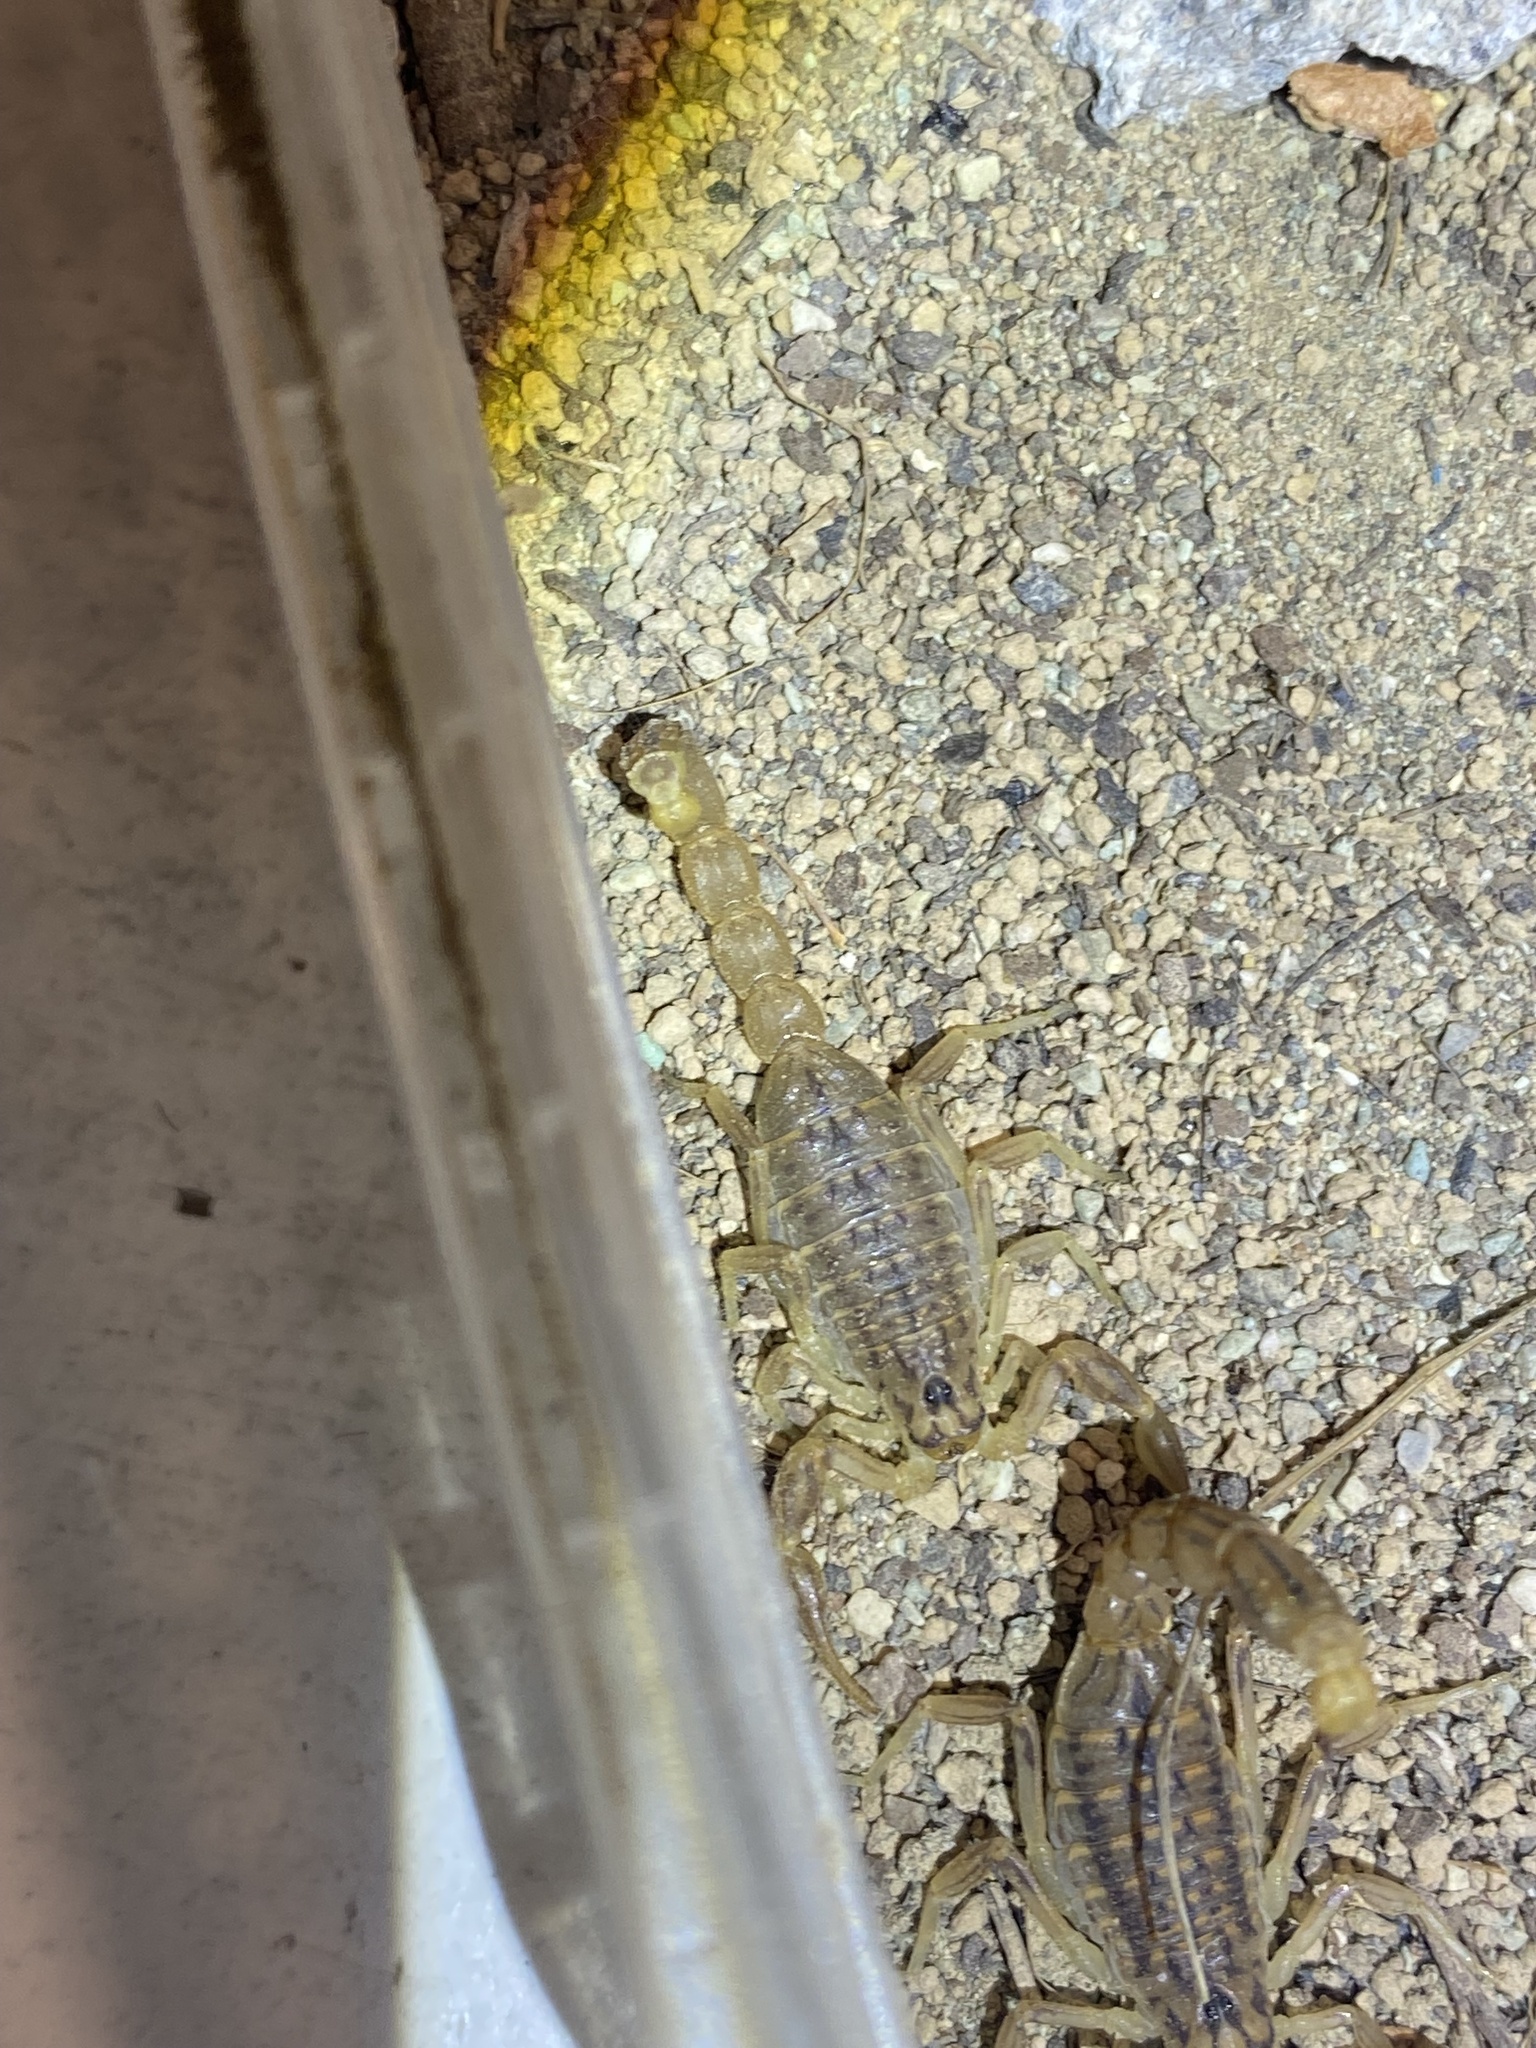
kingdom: Animalia
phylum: Arthropoda
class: Arachnida
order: Scorpiones
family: Buthidae
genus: Mesobuthus
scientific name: Mesobuthus farleyi
